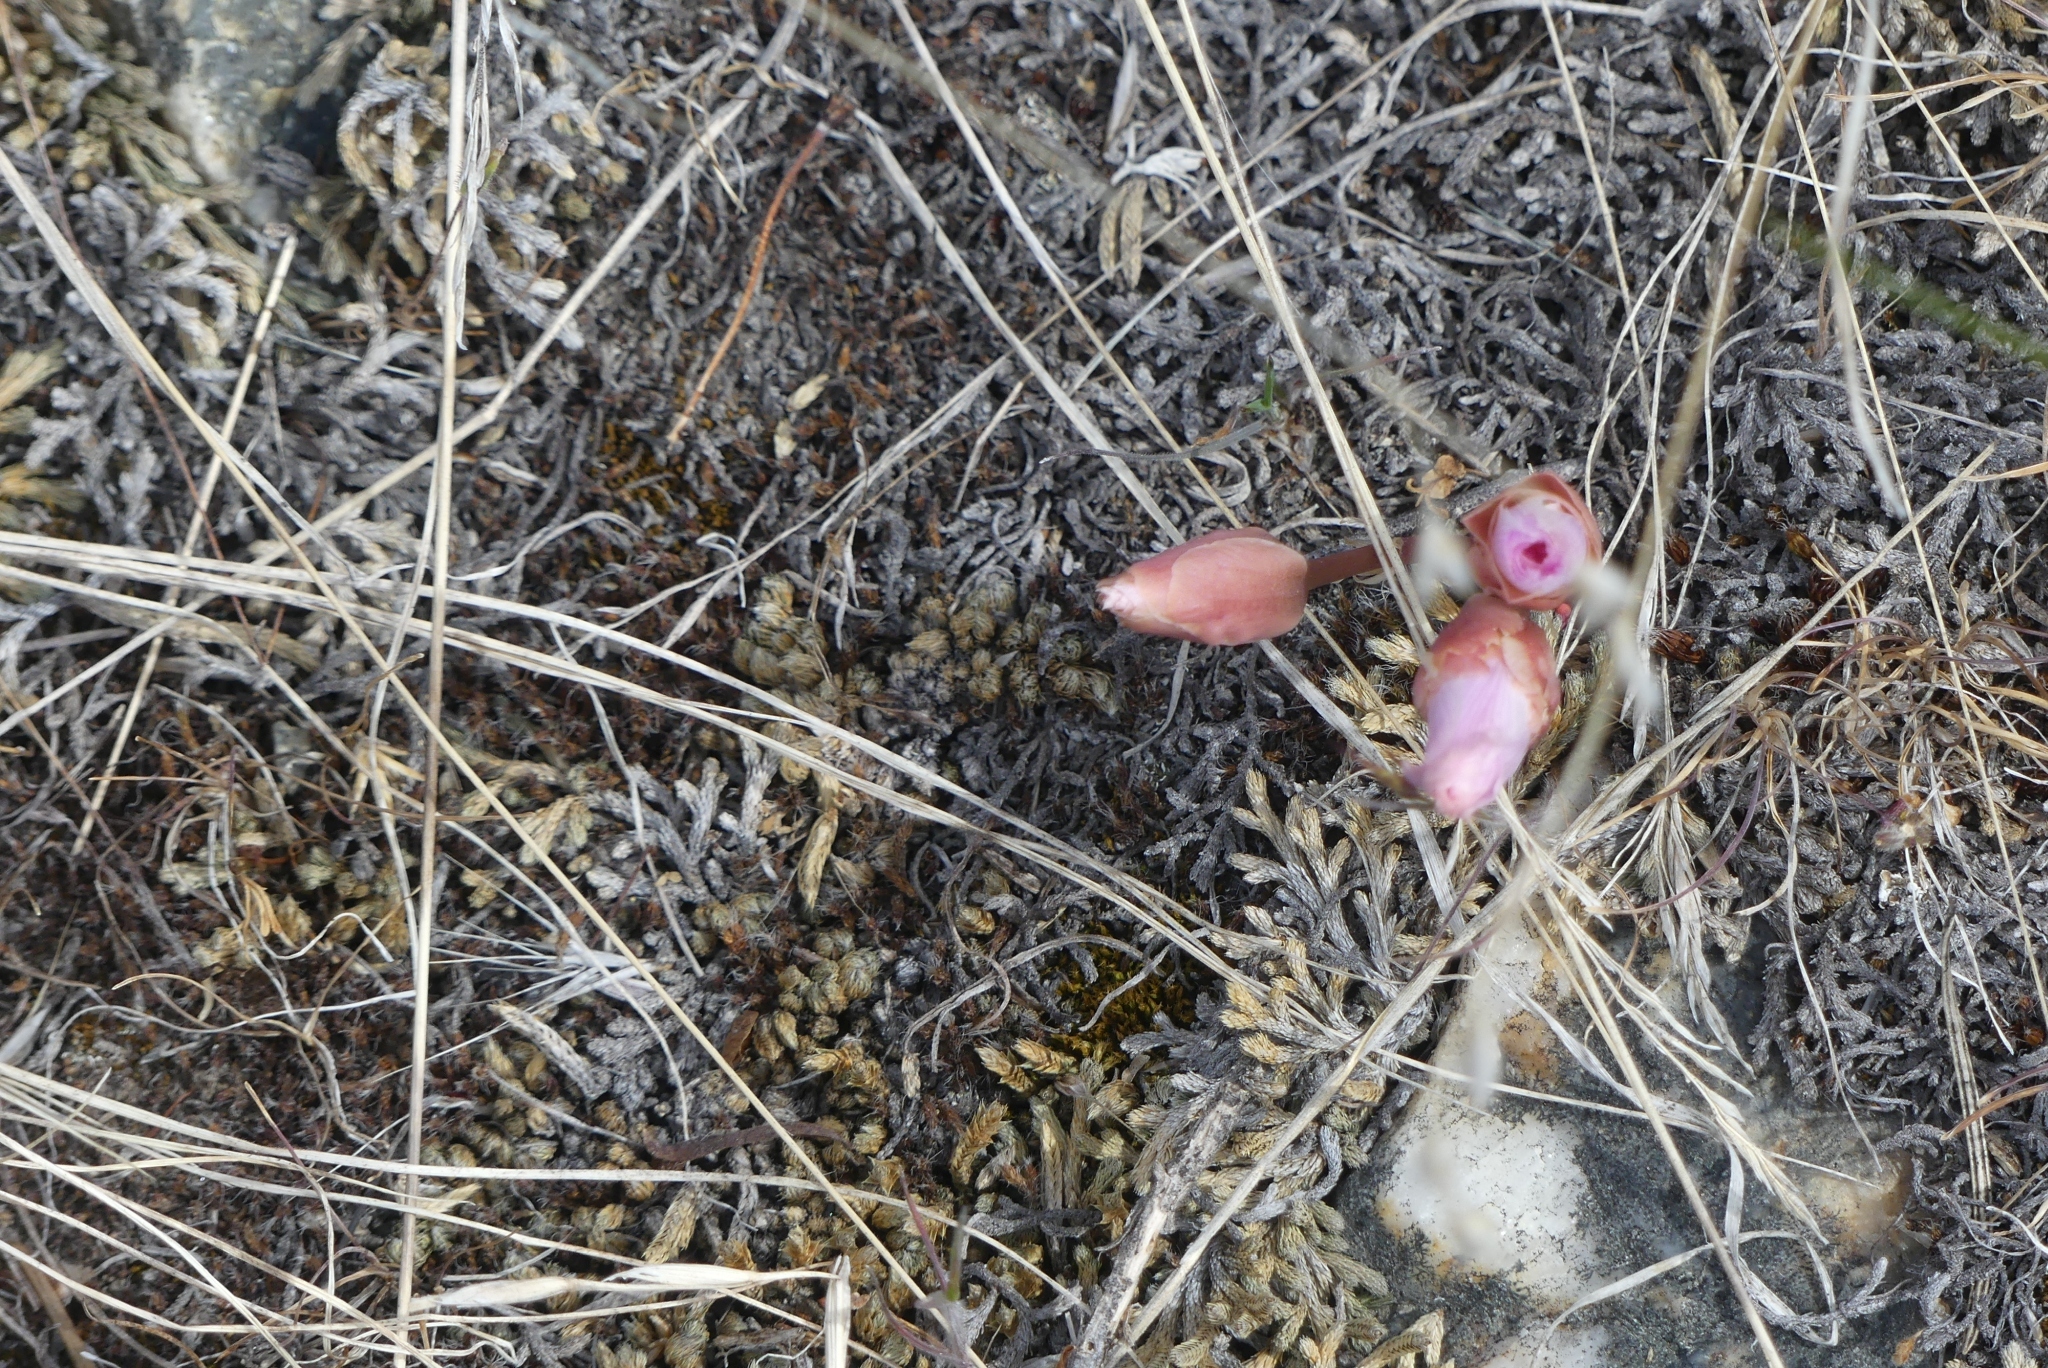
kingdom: Plantae
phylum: Tracheophyta
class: Magnoliopsida
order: Caryophyllales
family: Montiaceae
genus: Lewisia
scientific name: Lewisia rediviva
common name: Bitter-root
